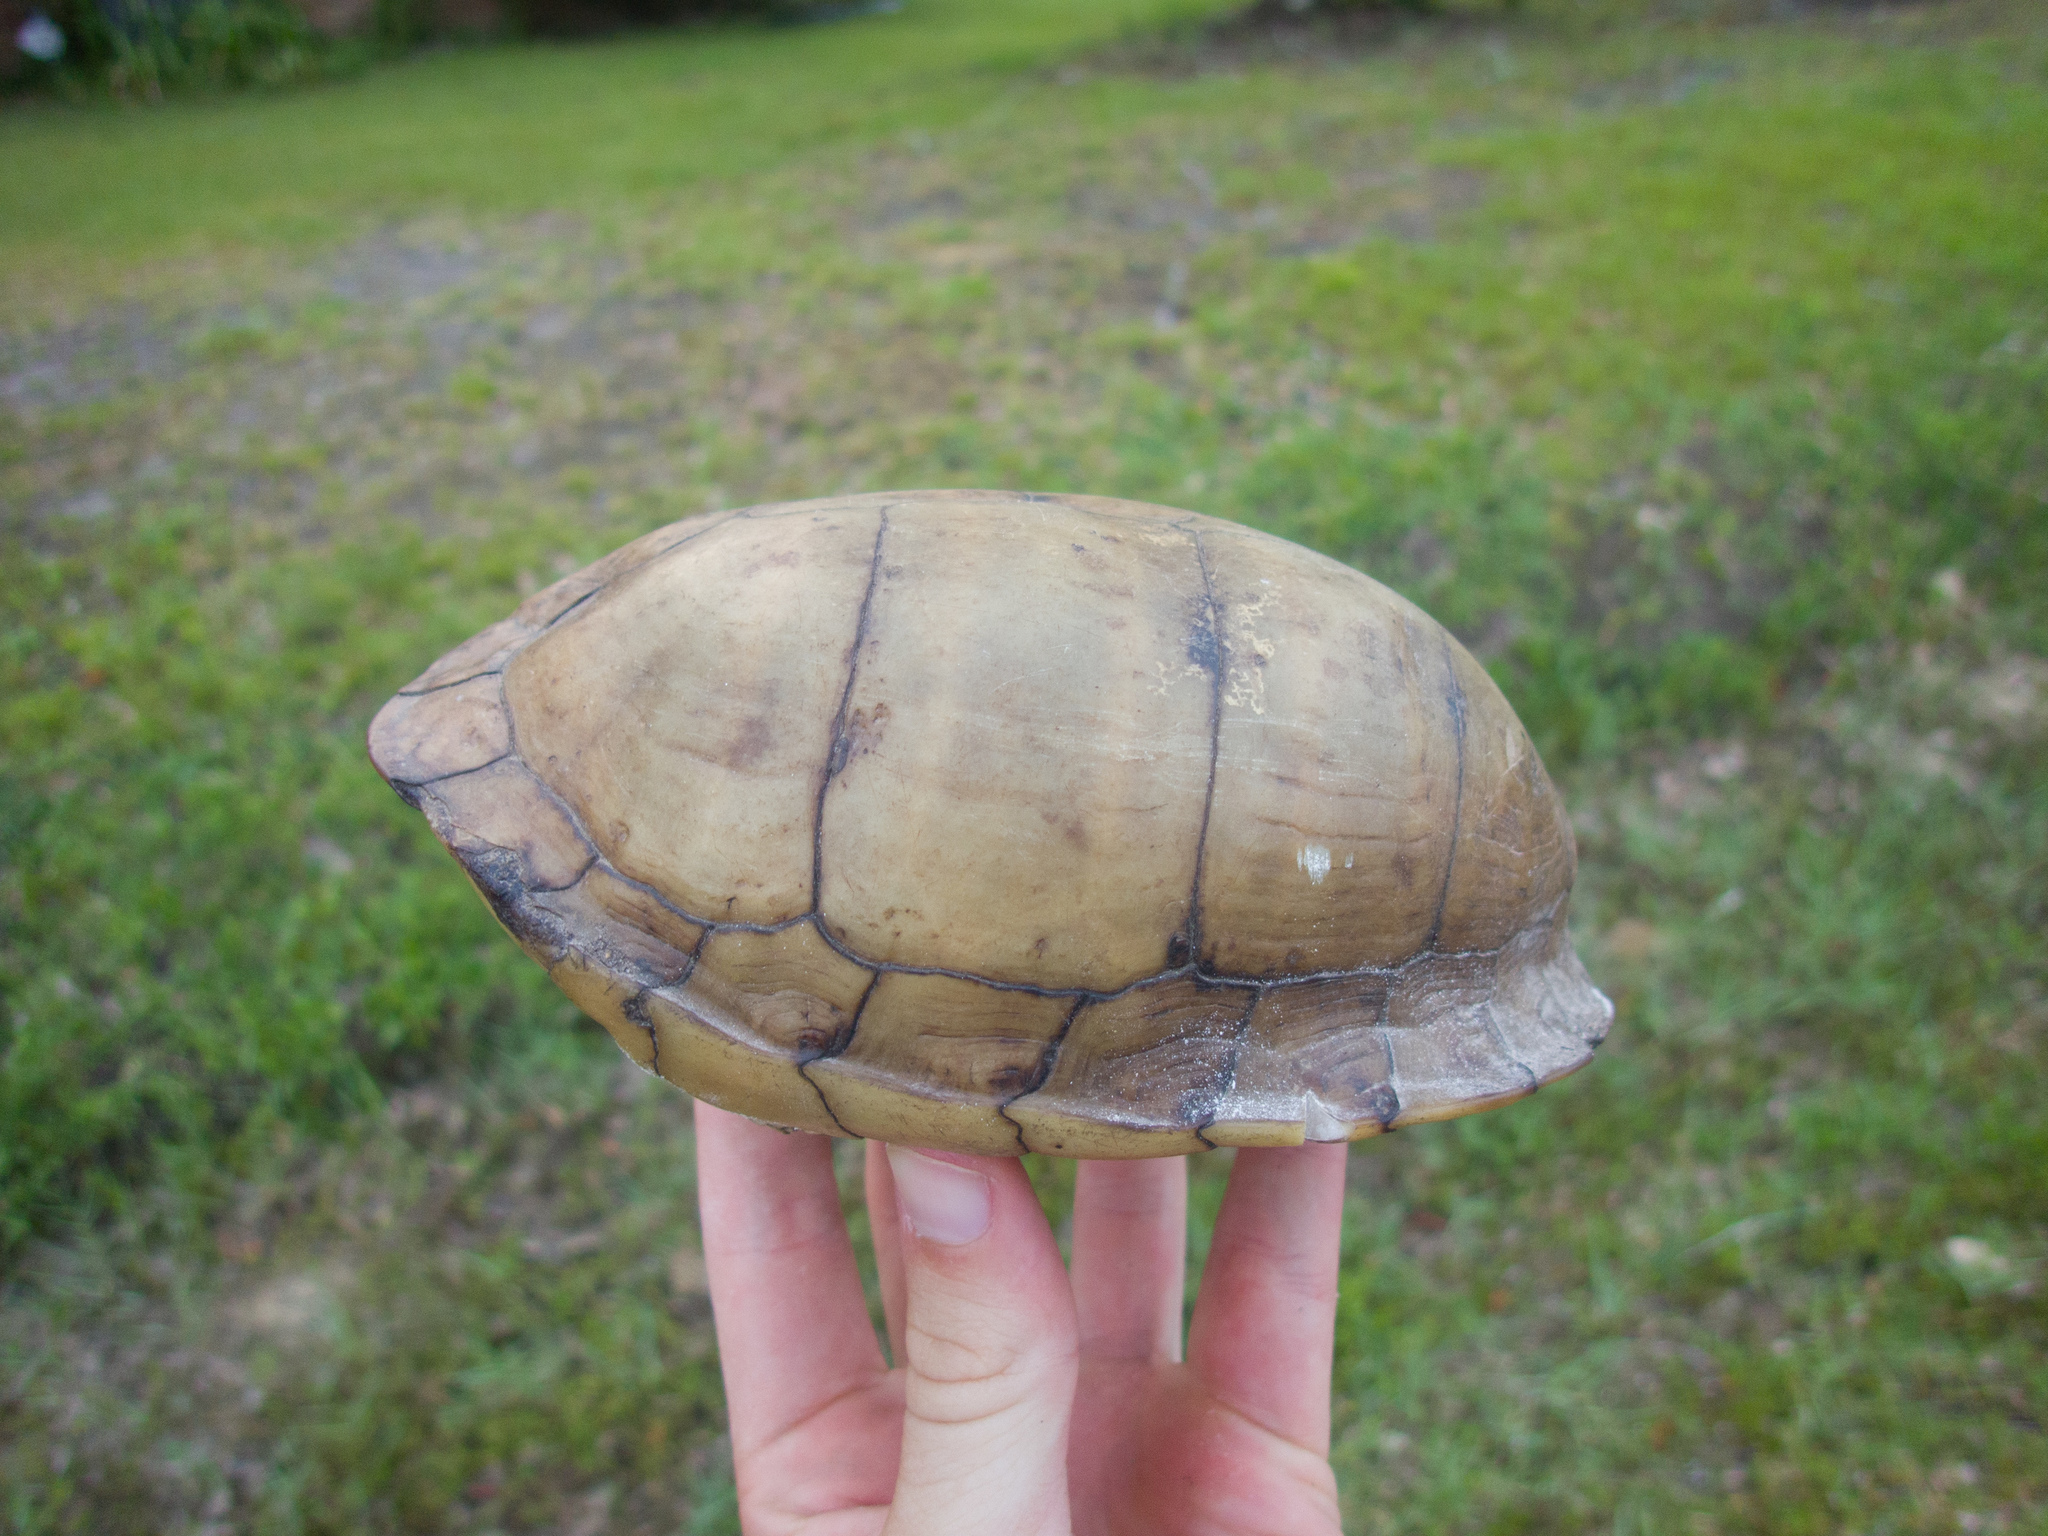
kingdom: Animalia
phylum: Chordata
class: Testudines
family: Emydidae
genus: Terrapene
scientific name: Terrapene carolina
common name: Common box turtle
